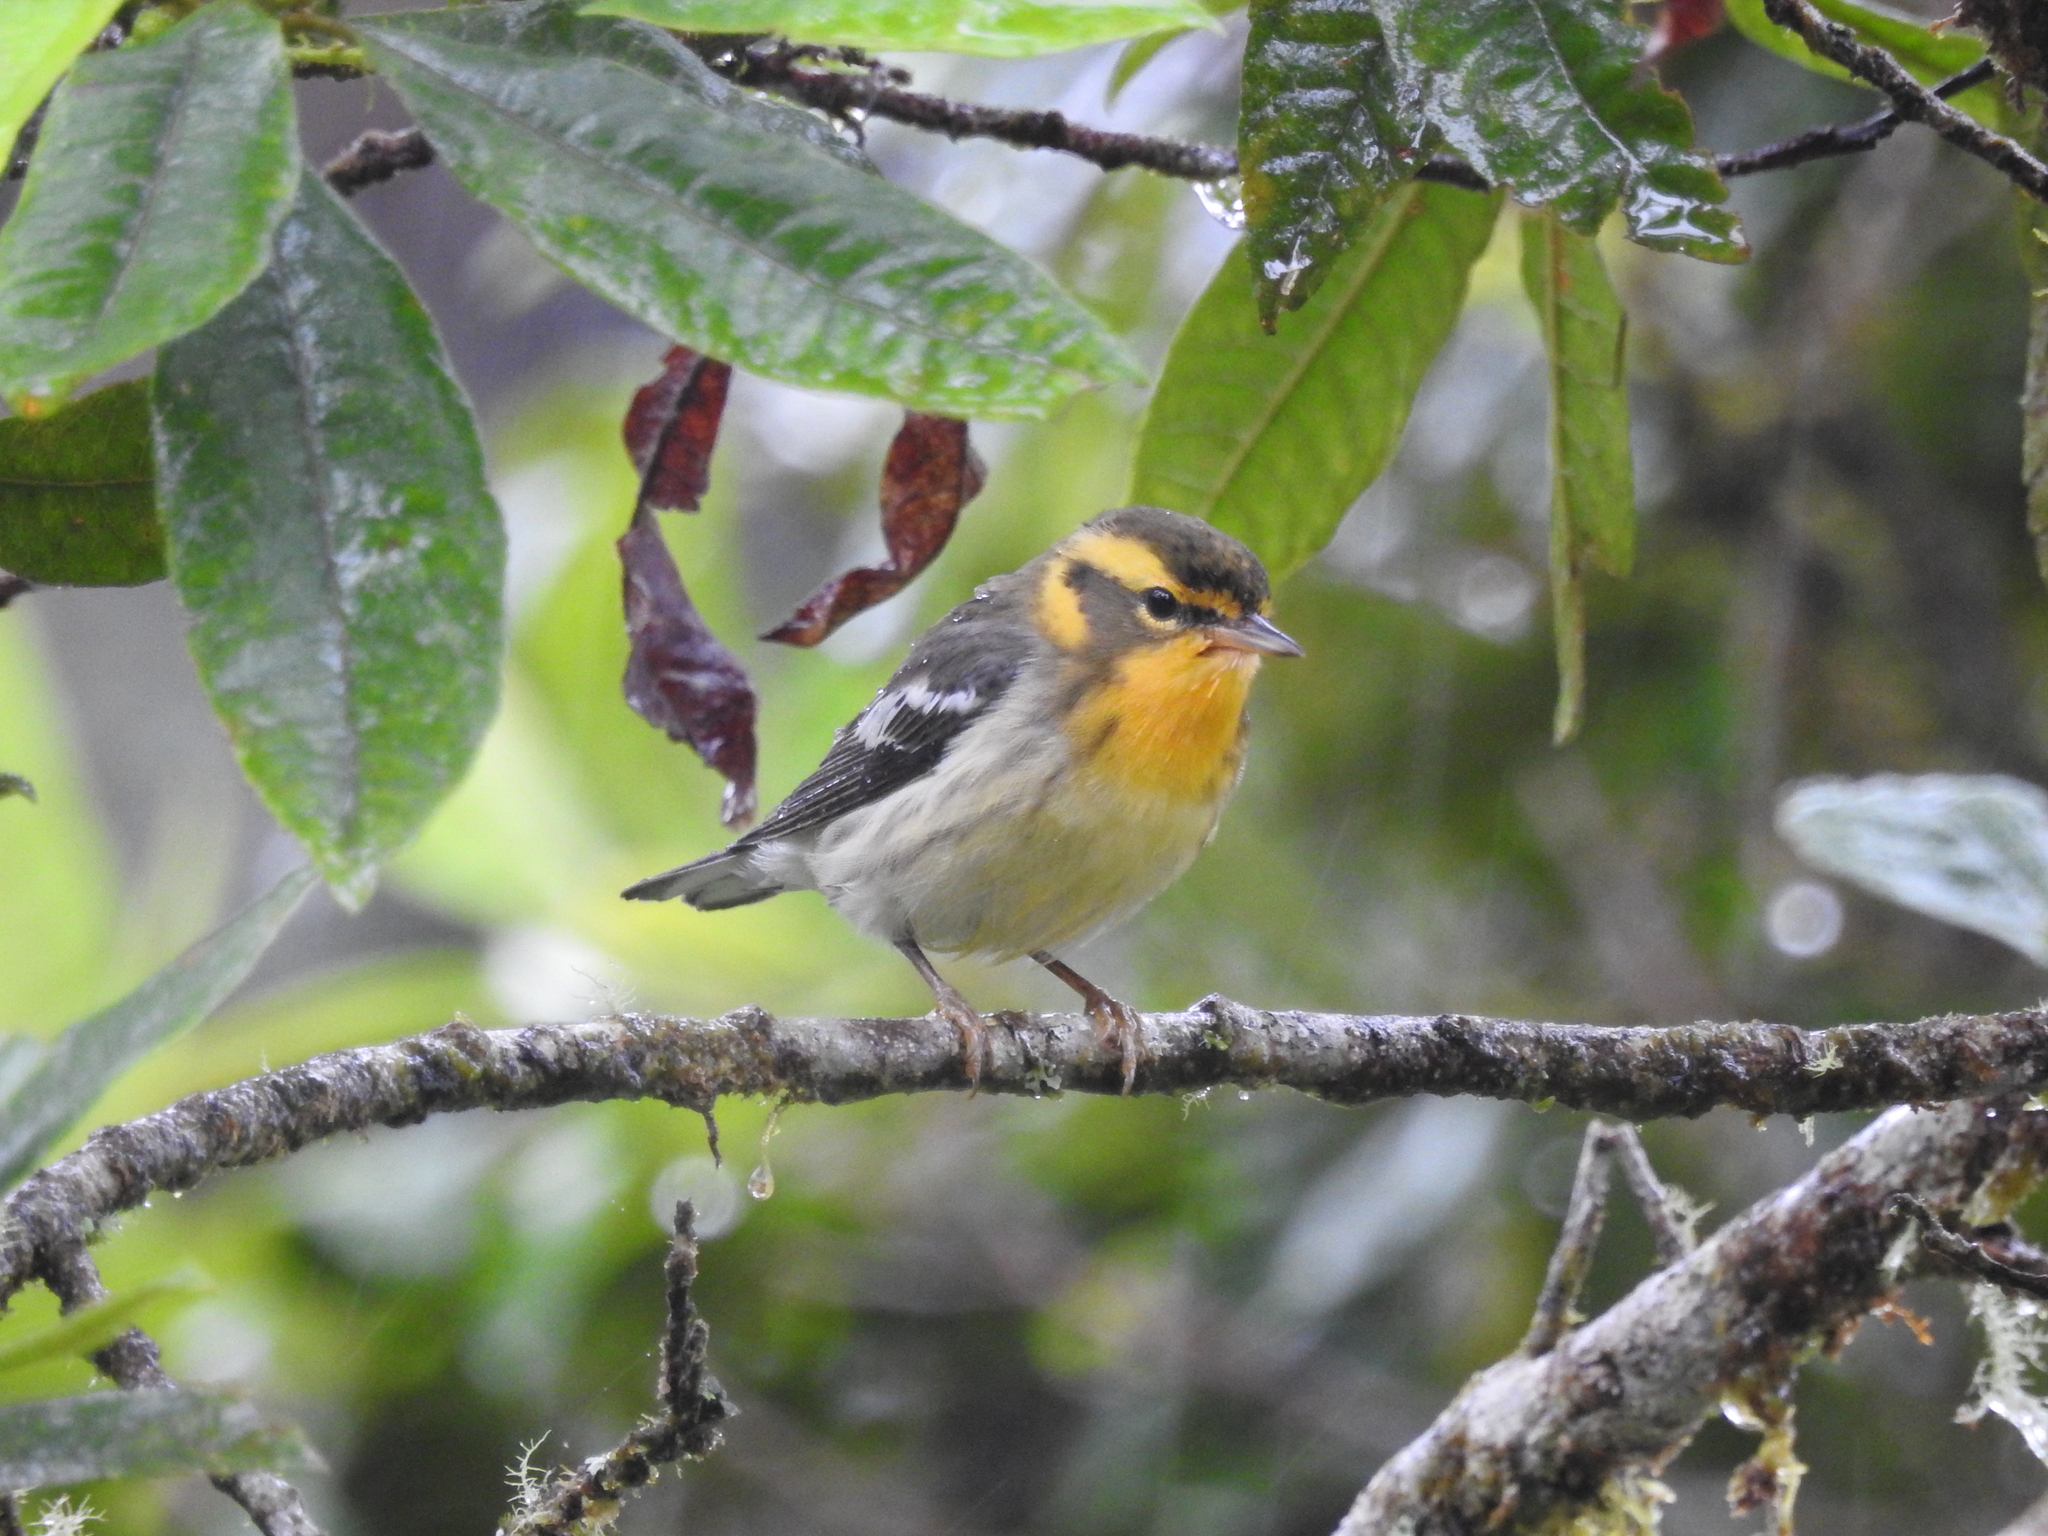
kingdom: Animalia
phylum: Chordata
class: Aves
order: Passeriformes
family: Parulidae
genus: Setophaga
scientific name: Setophaga fusca
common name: Blackburnian warbler
